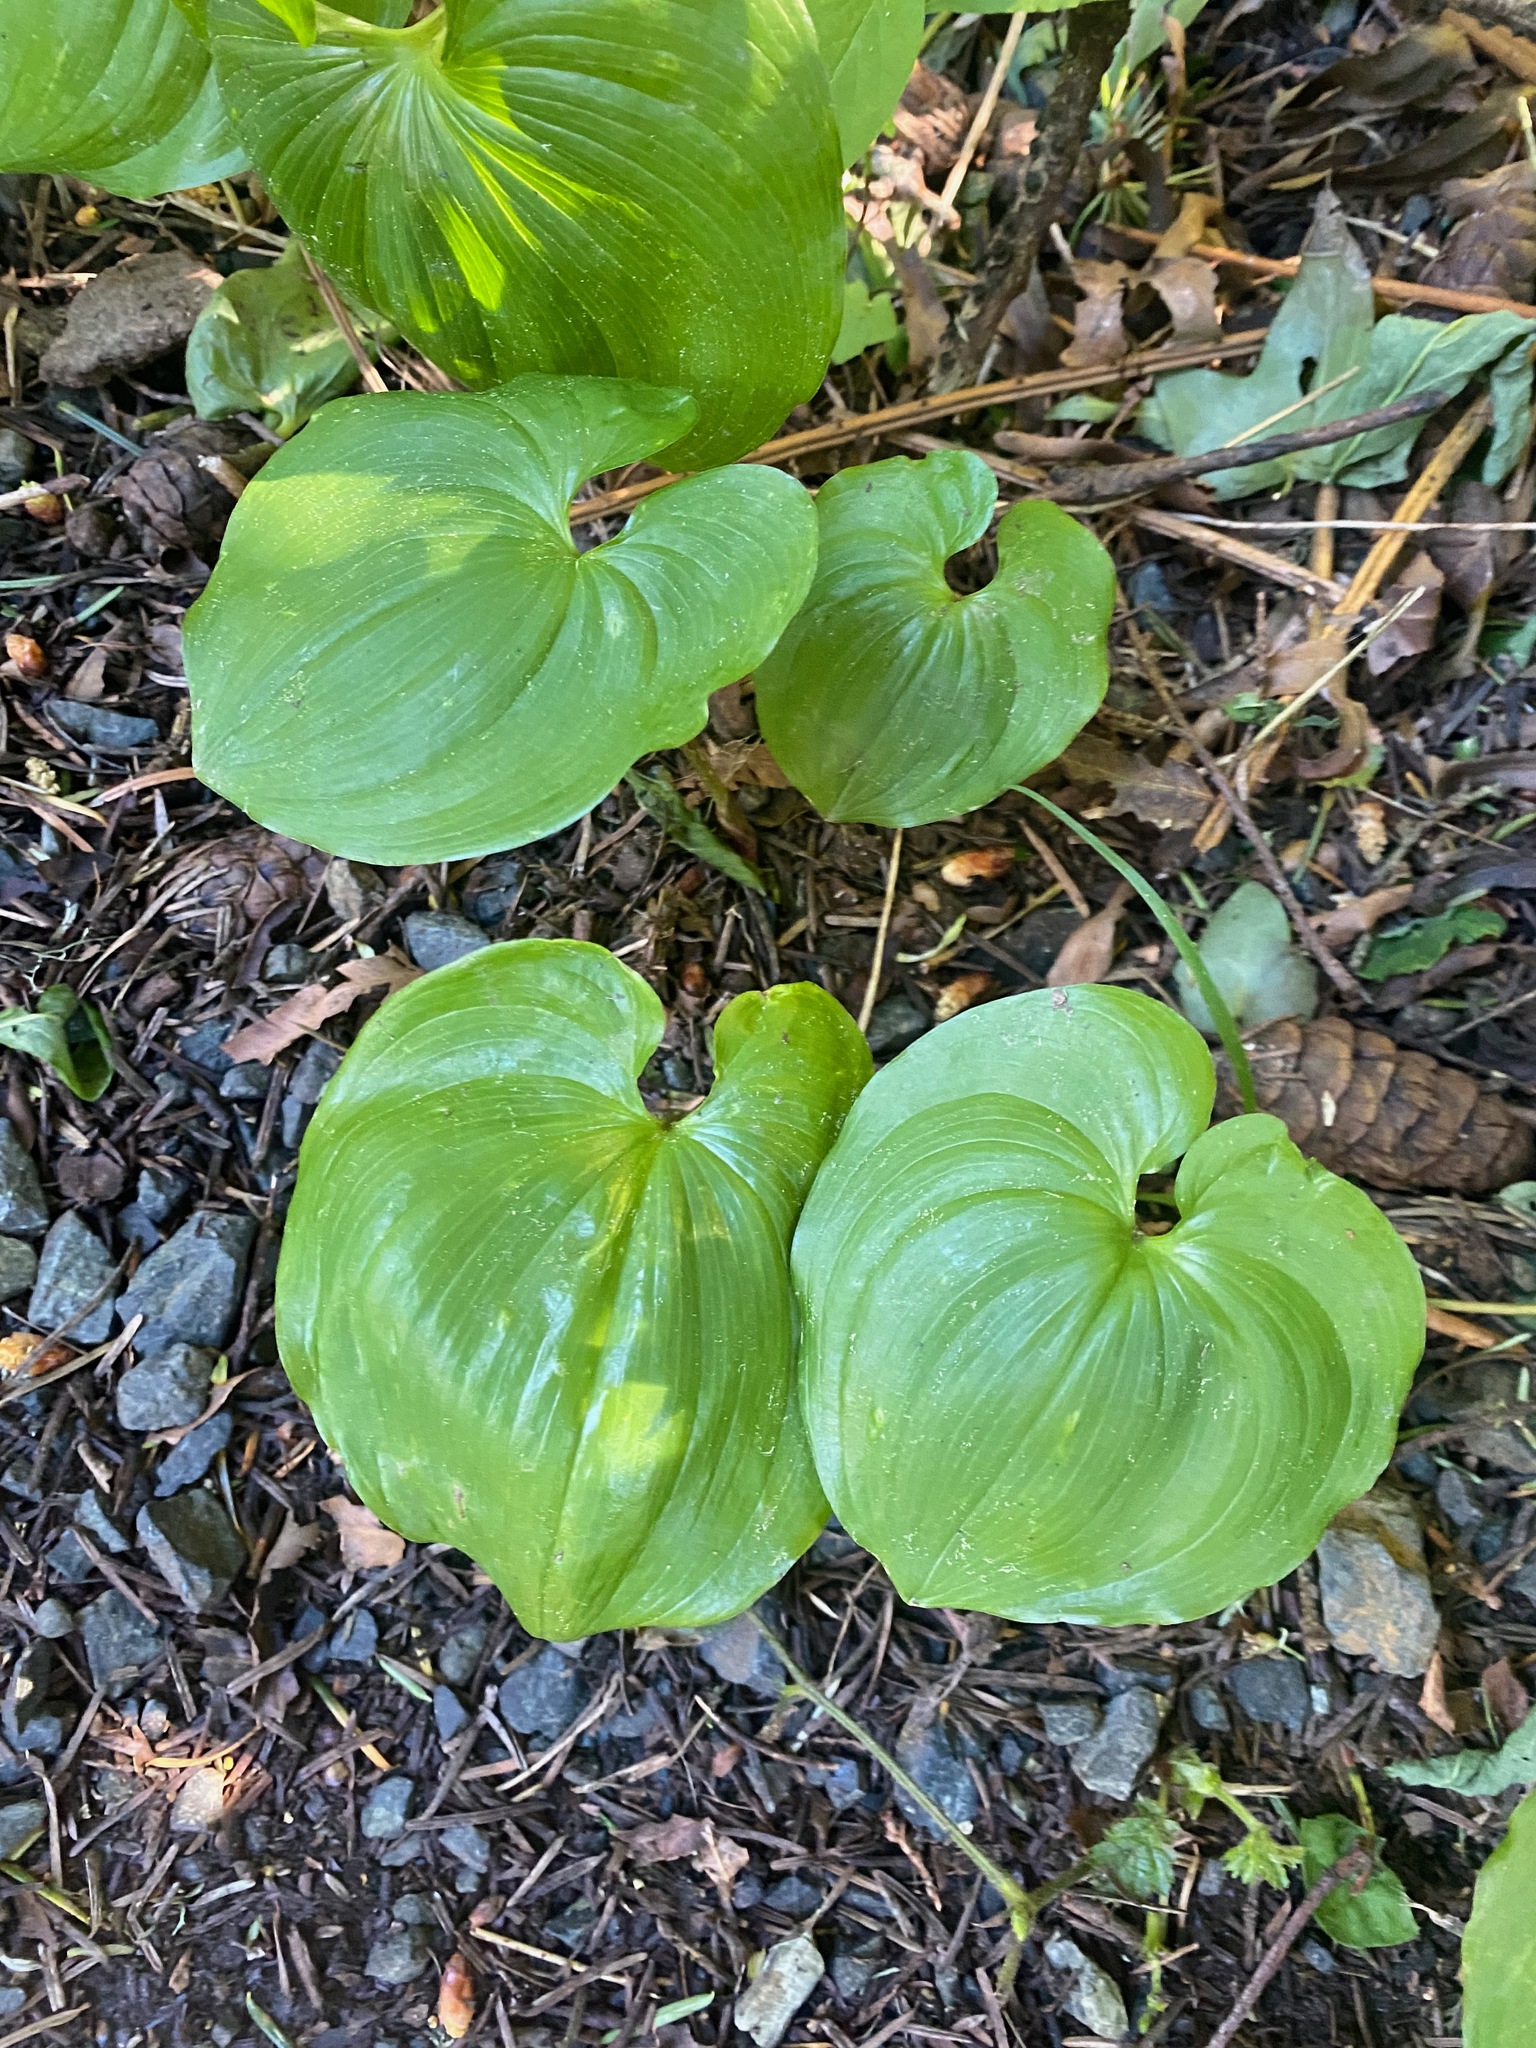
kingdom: Plantae
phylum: Tracheophyta
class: Liliopsida
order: Asparagales
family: Asparagaceae
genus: Maianthemum
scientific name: Maianthemum dilatatum
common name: False lily-of-the-valley
